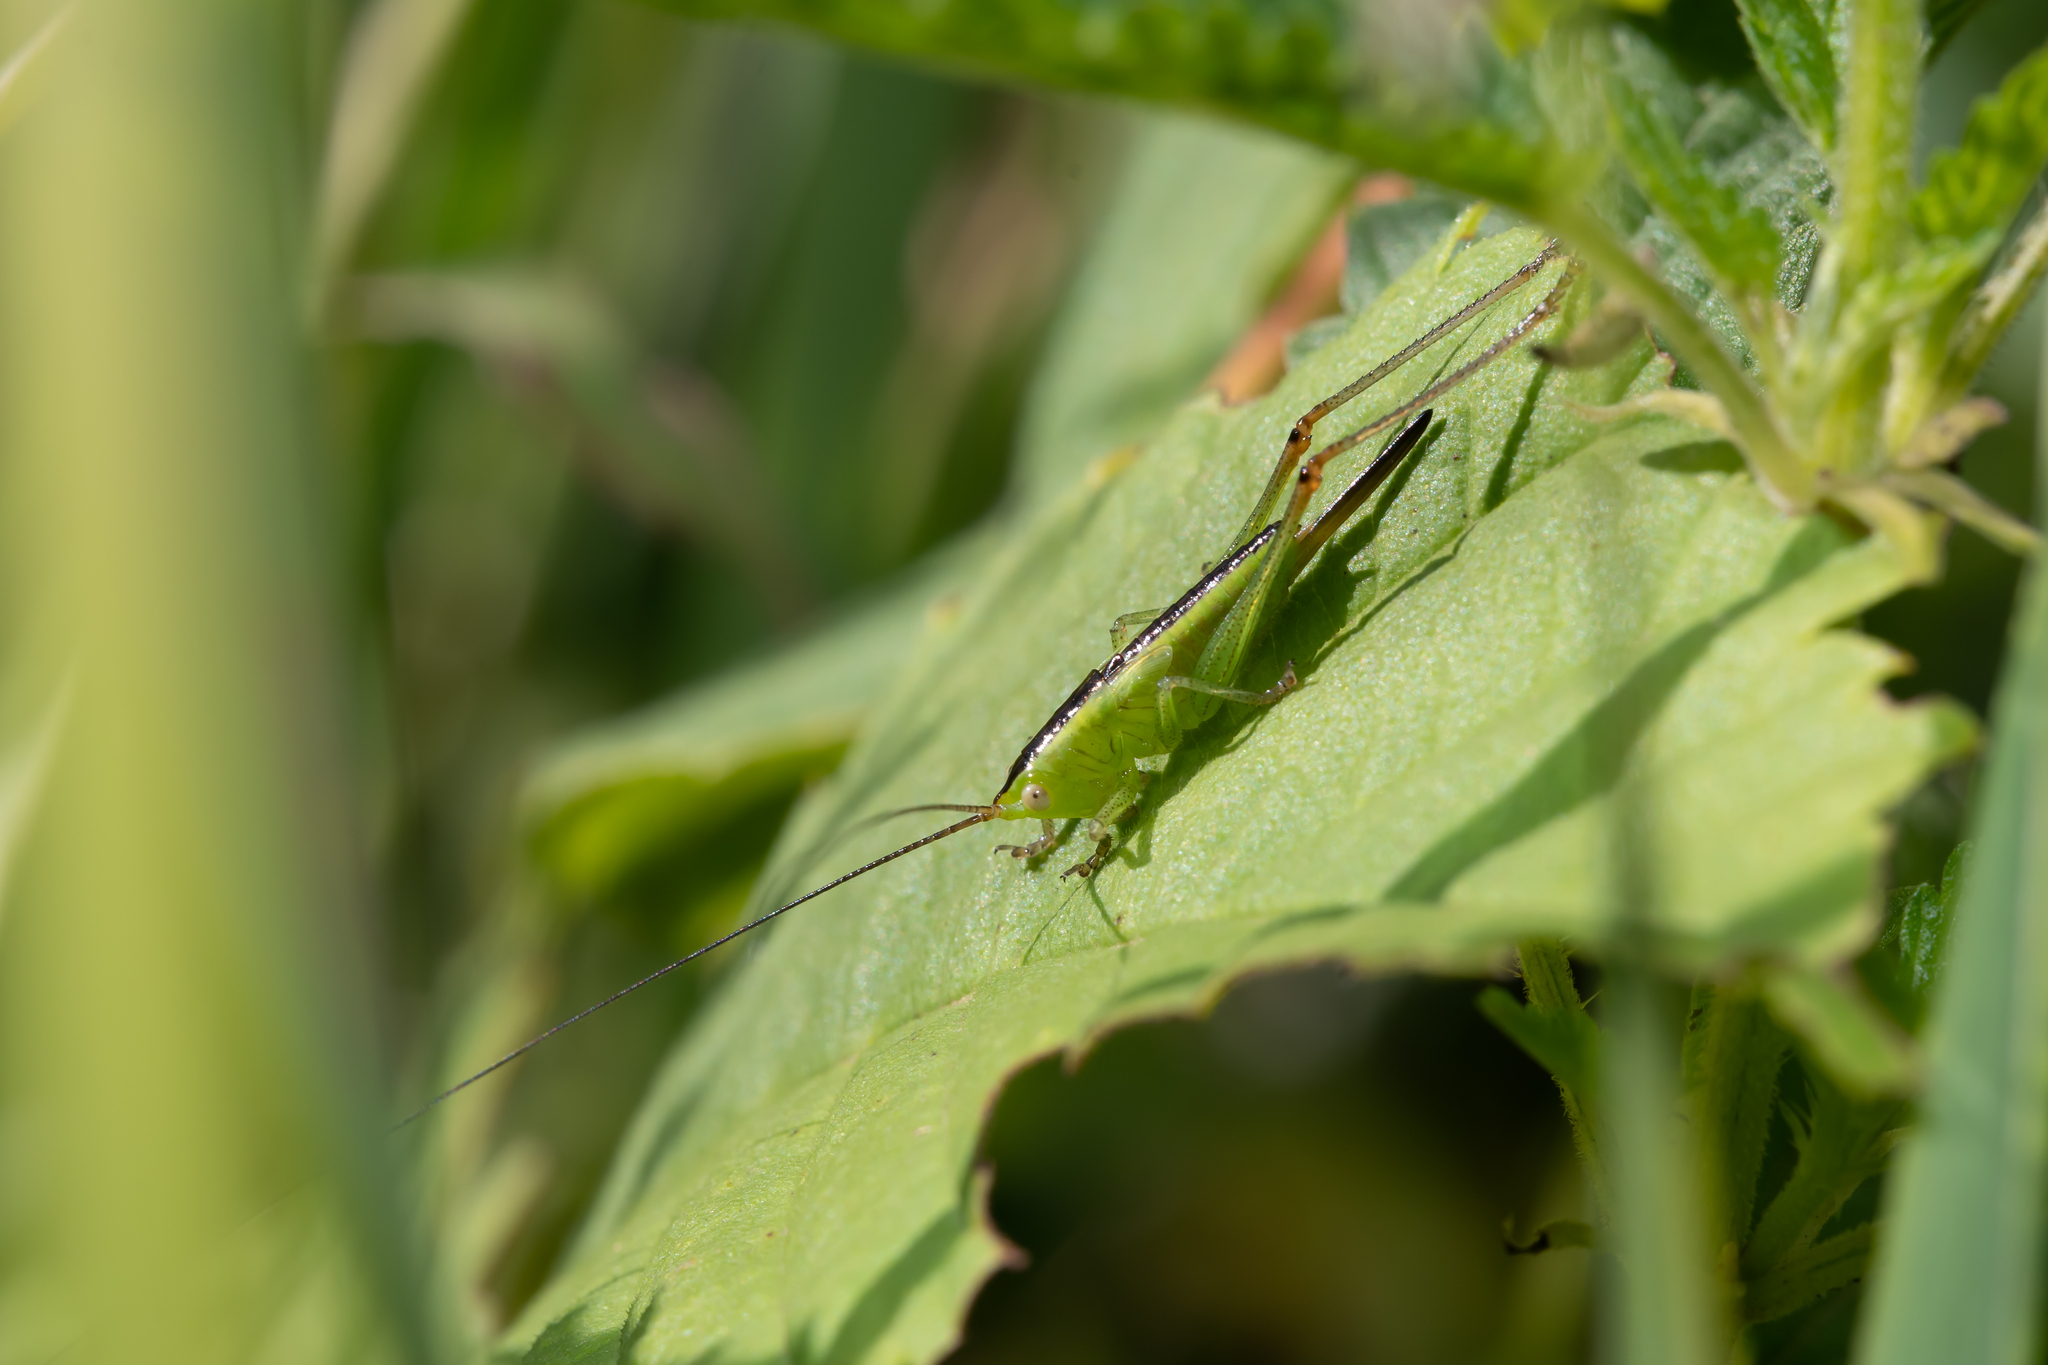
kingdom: Animalia
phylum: Arthropoda
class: Insecta
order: Orthoptera
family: Tettigoniidae
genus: Conocephalus
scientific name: Conocephalus fuscus
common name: Long-winged conehead
